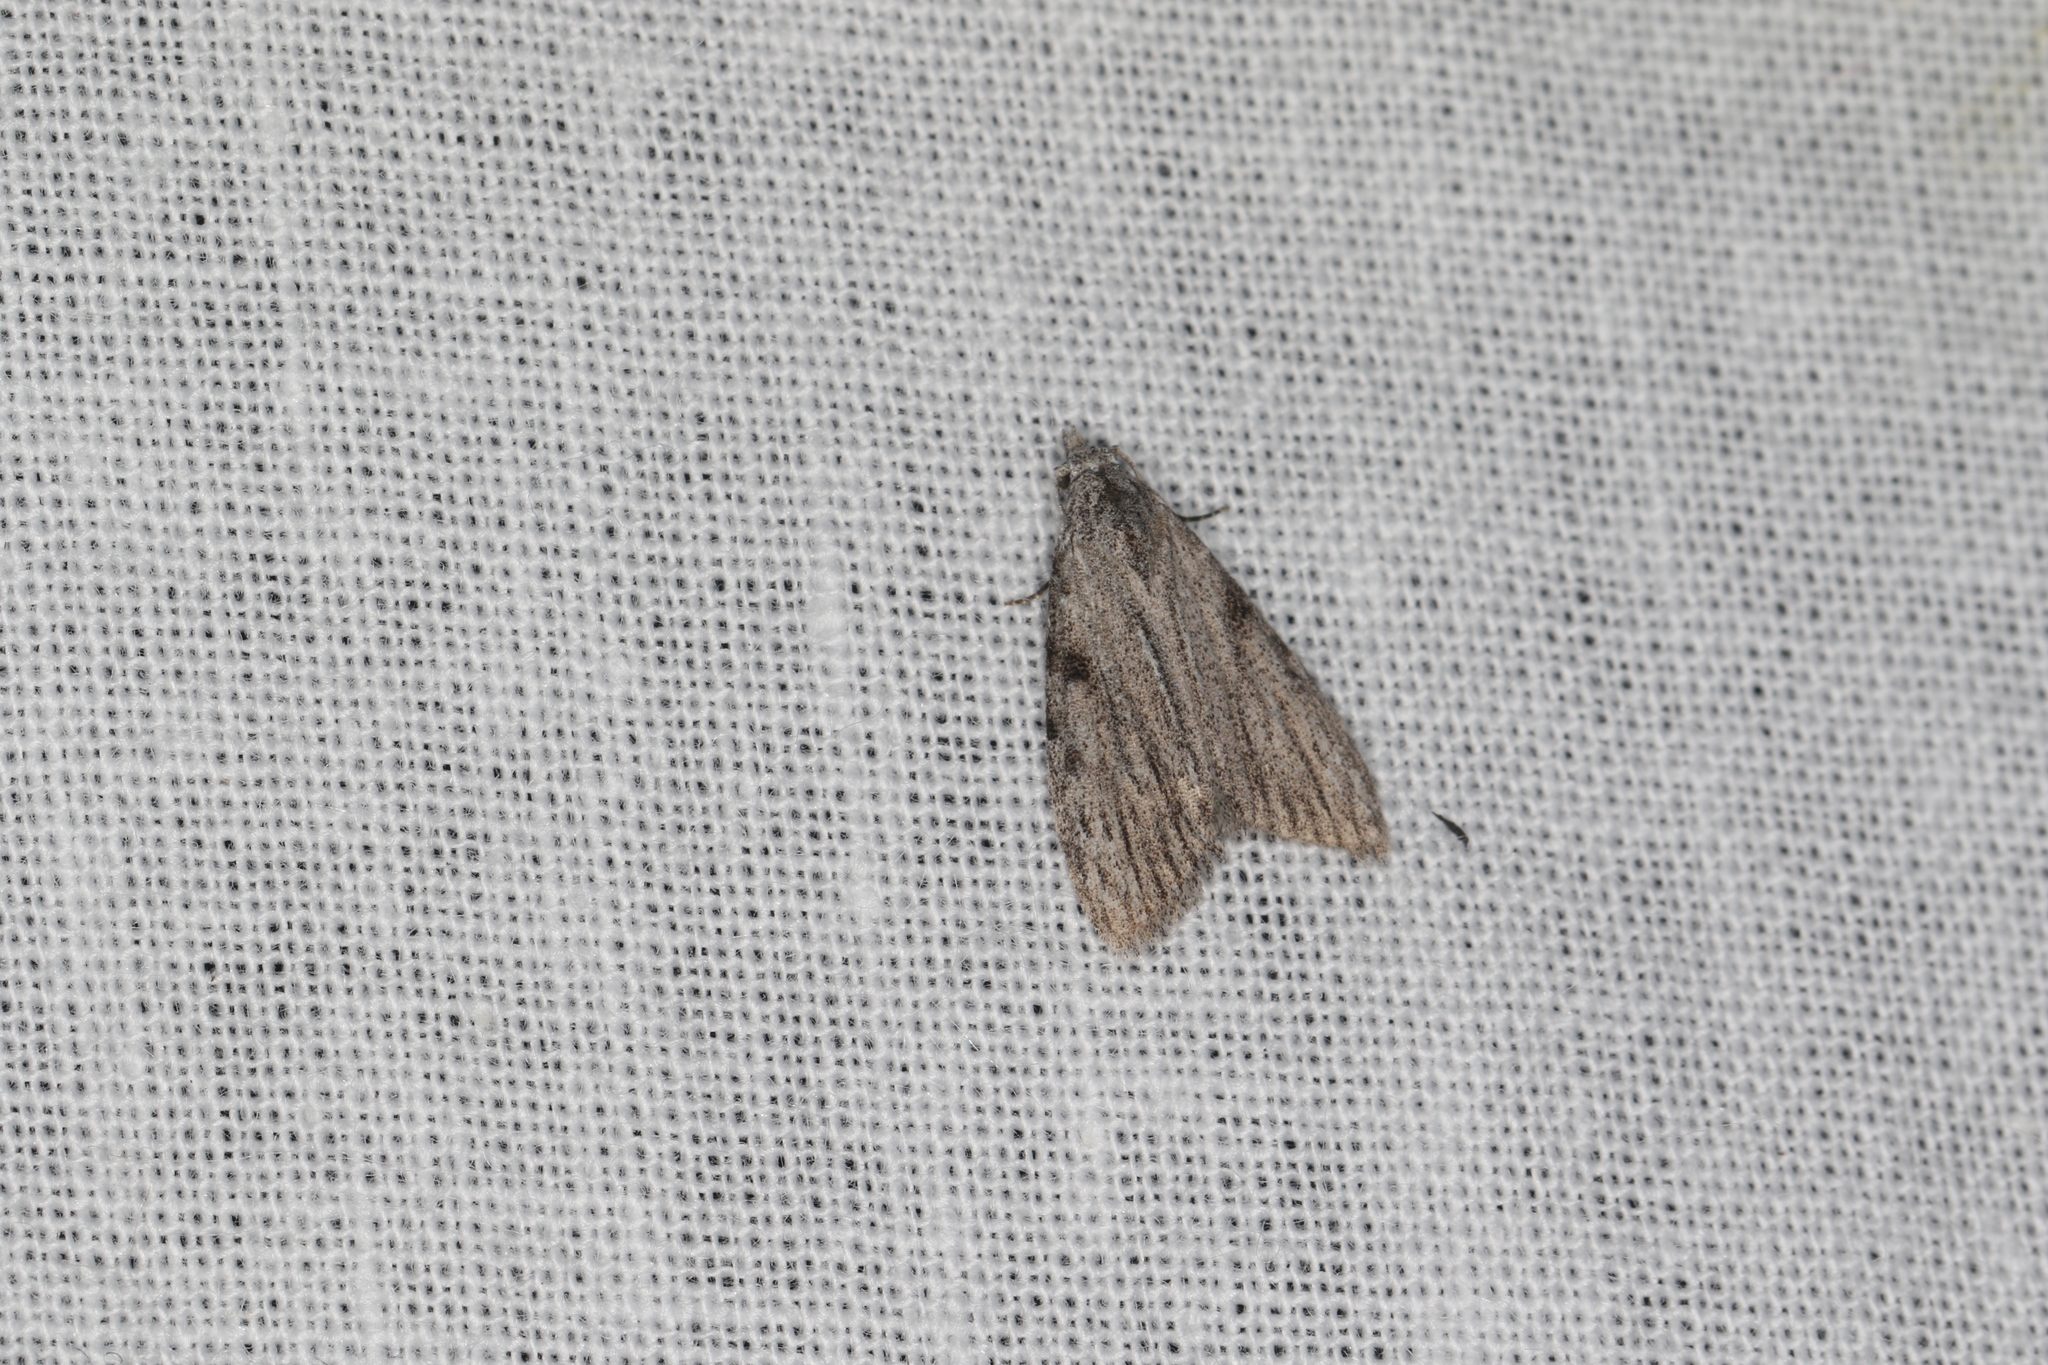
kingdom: Animalia
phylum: Arthropoda
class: Insecta
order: Lepidoptera
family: Nolidae
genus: Nola
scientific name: Nola amorpha
